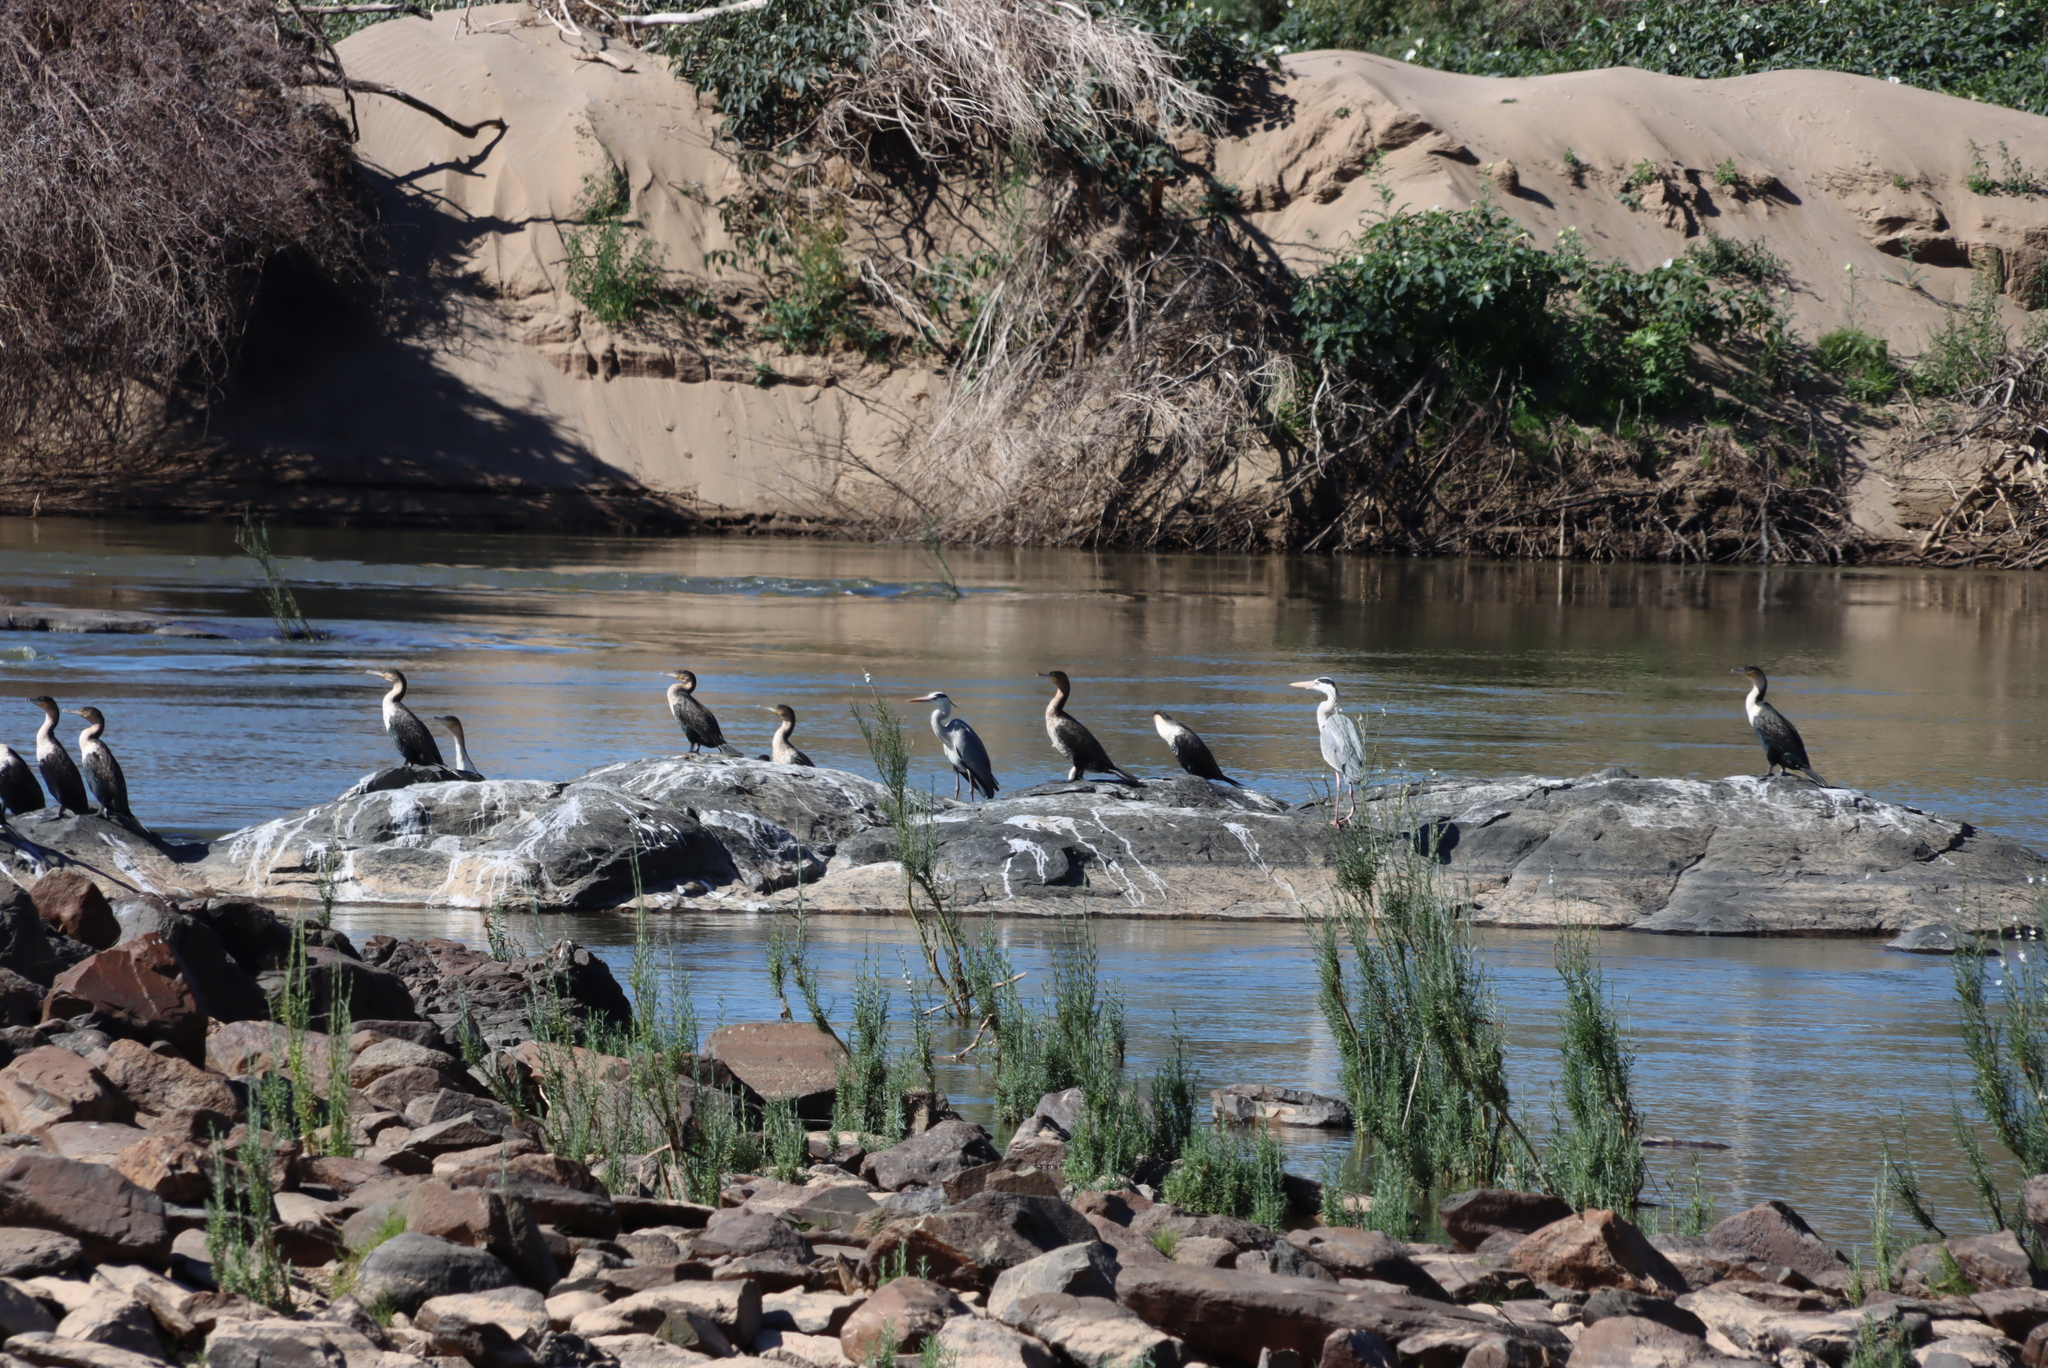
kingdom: Animalia
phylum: Chordata
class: Aves
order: Pelecaniformes
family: Ardeidae
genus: Ardea
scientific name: Ardea cinerea
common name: Grey heron
